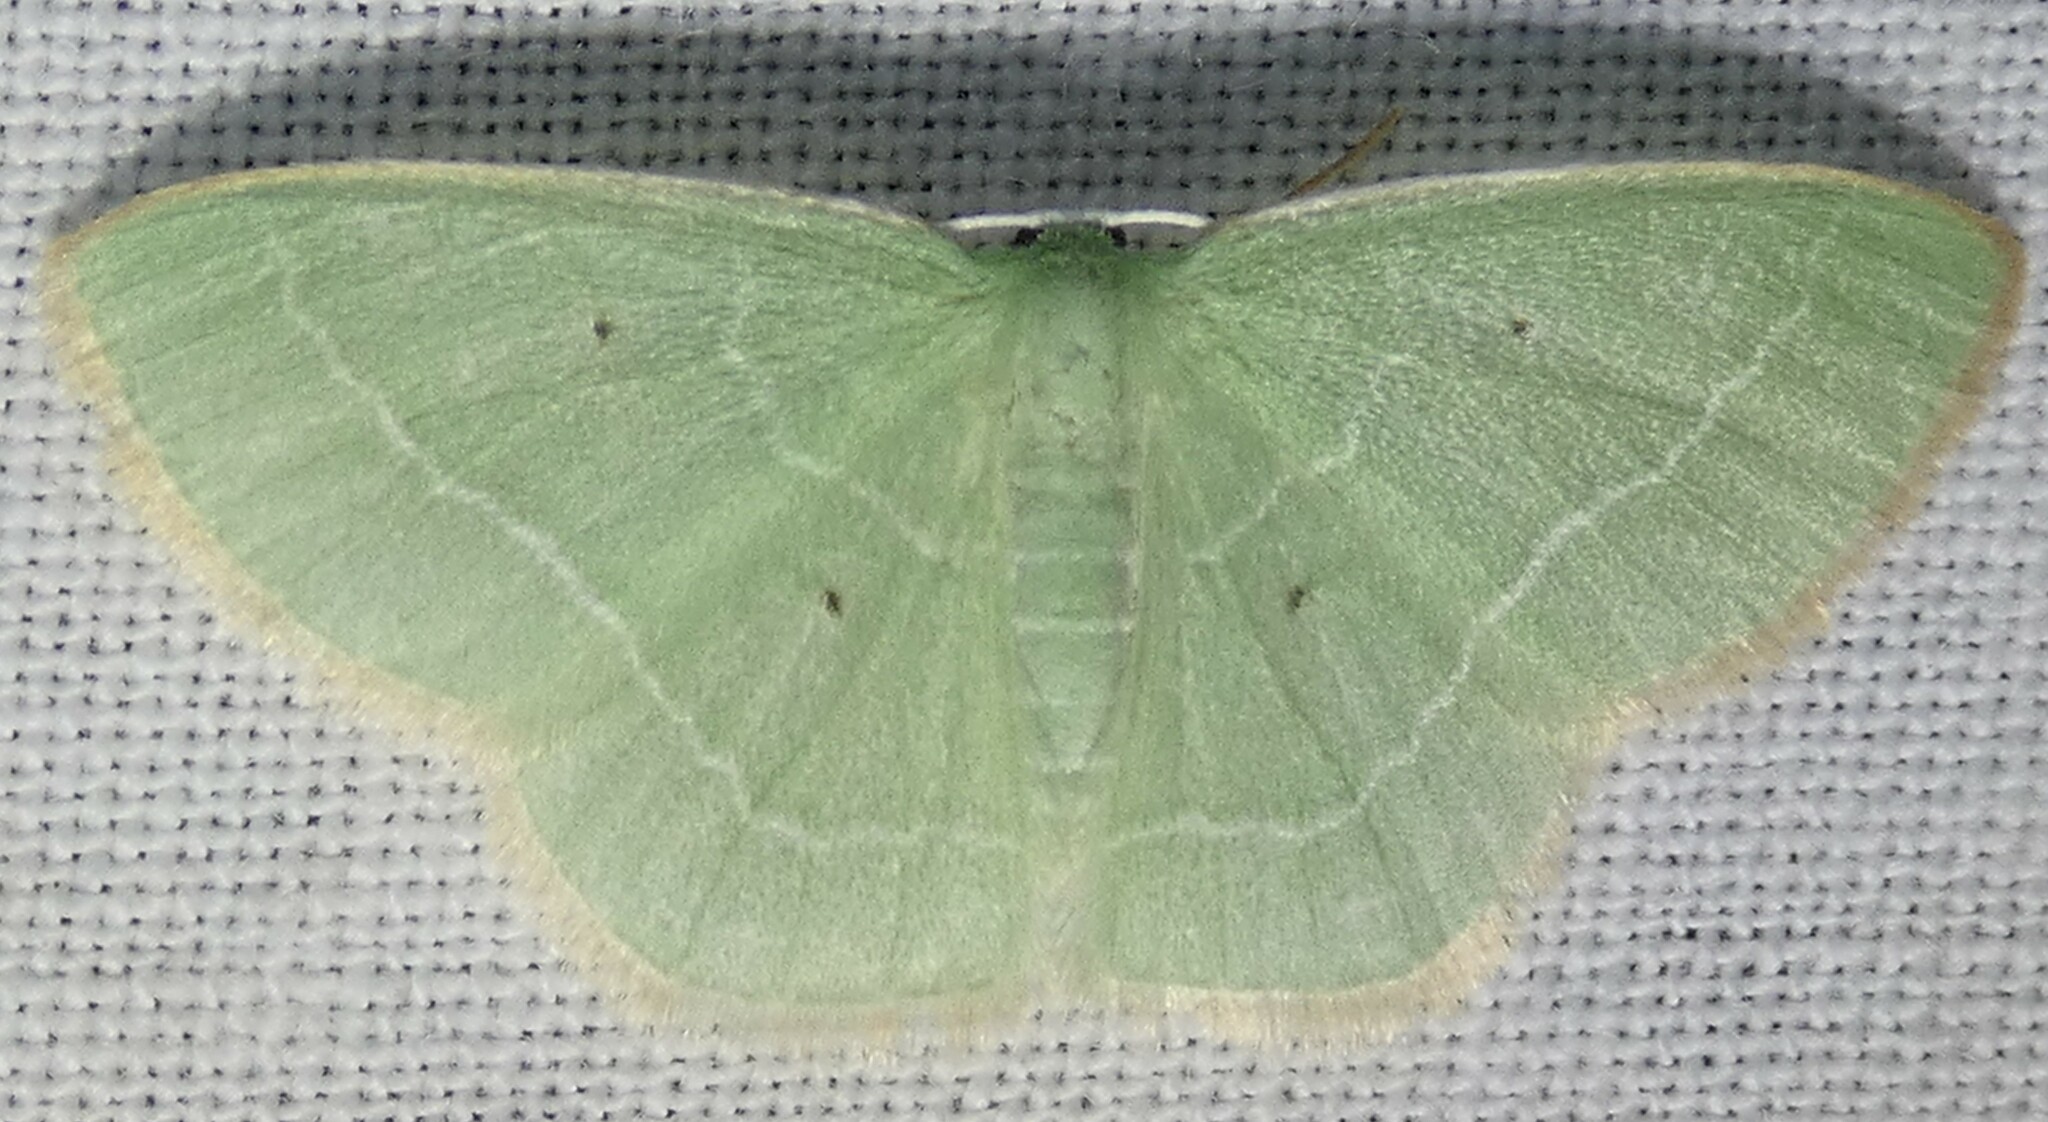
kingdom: Animalia
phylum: Arthropoda
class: Insecta
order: Lepidoptera
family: Geometridae
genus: Nemoria
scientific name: Nemoria elfa
